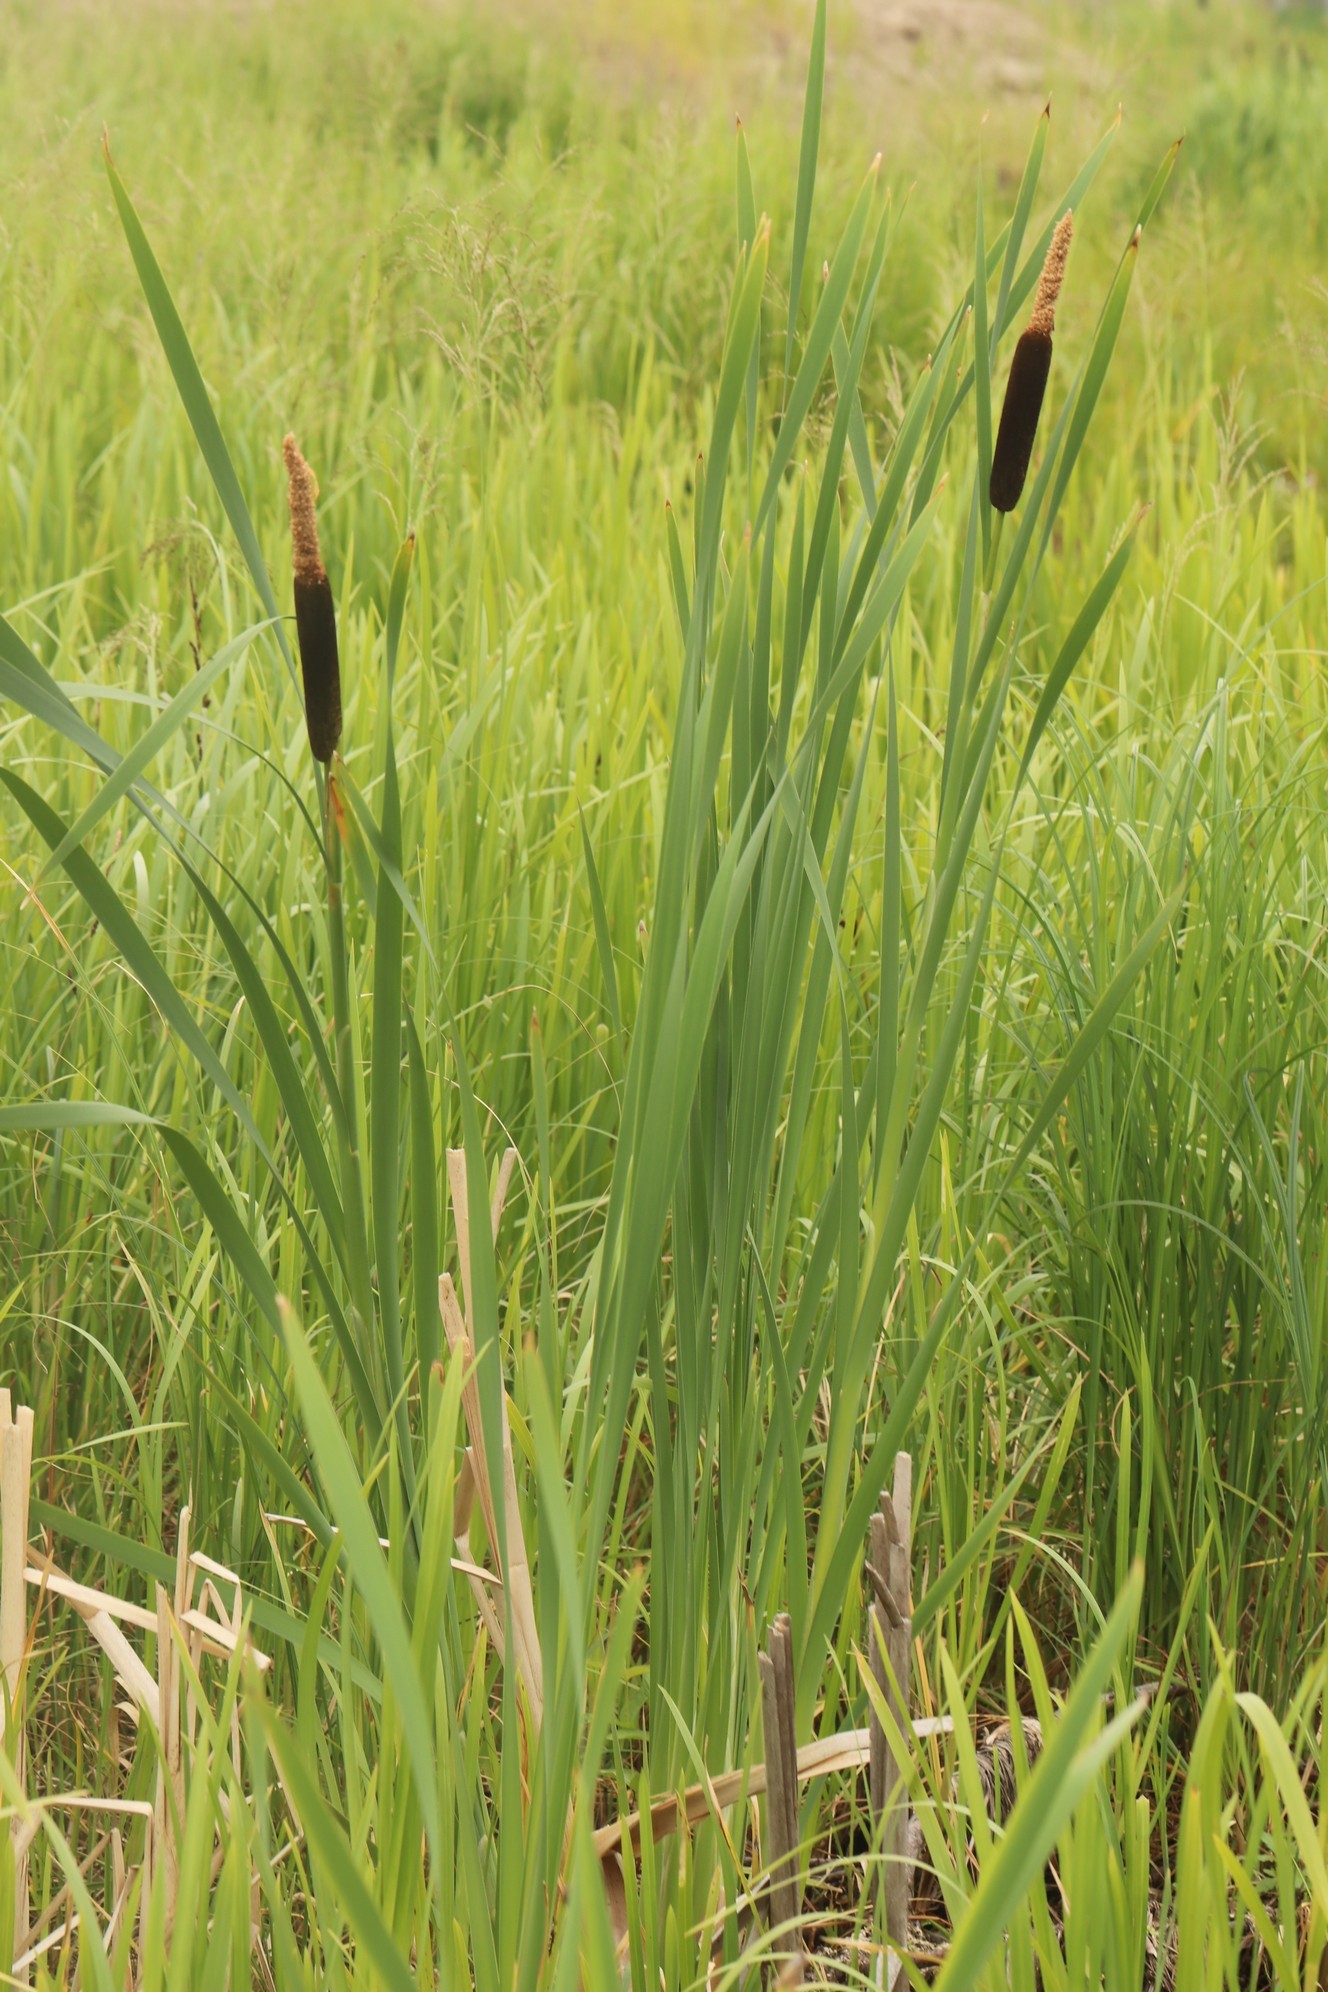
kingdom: Plantae
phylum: Tracheophyta
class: Liliopsida
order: Poales
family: Typhaceae
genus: Typha
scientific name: Typha latifolia
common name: Broadleaf cattail
